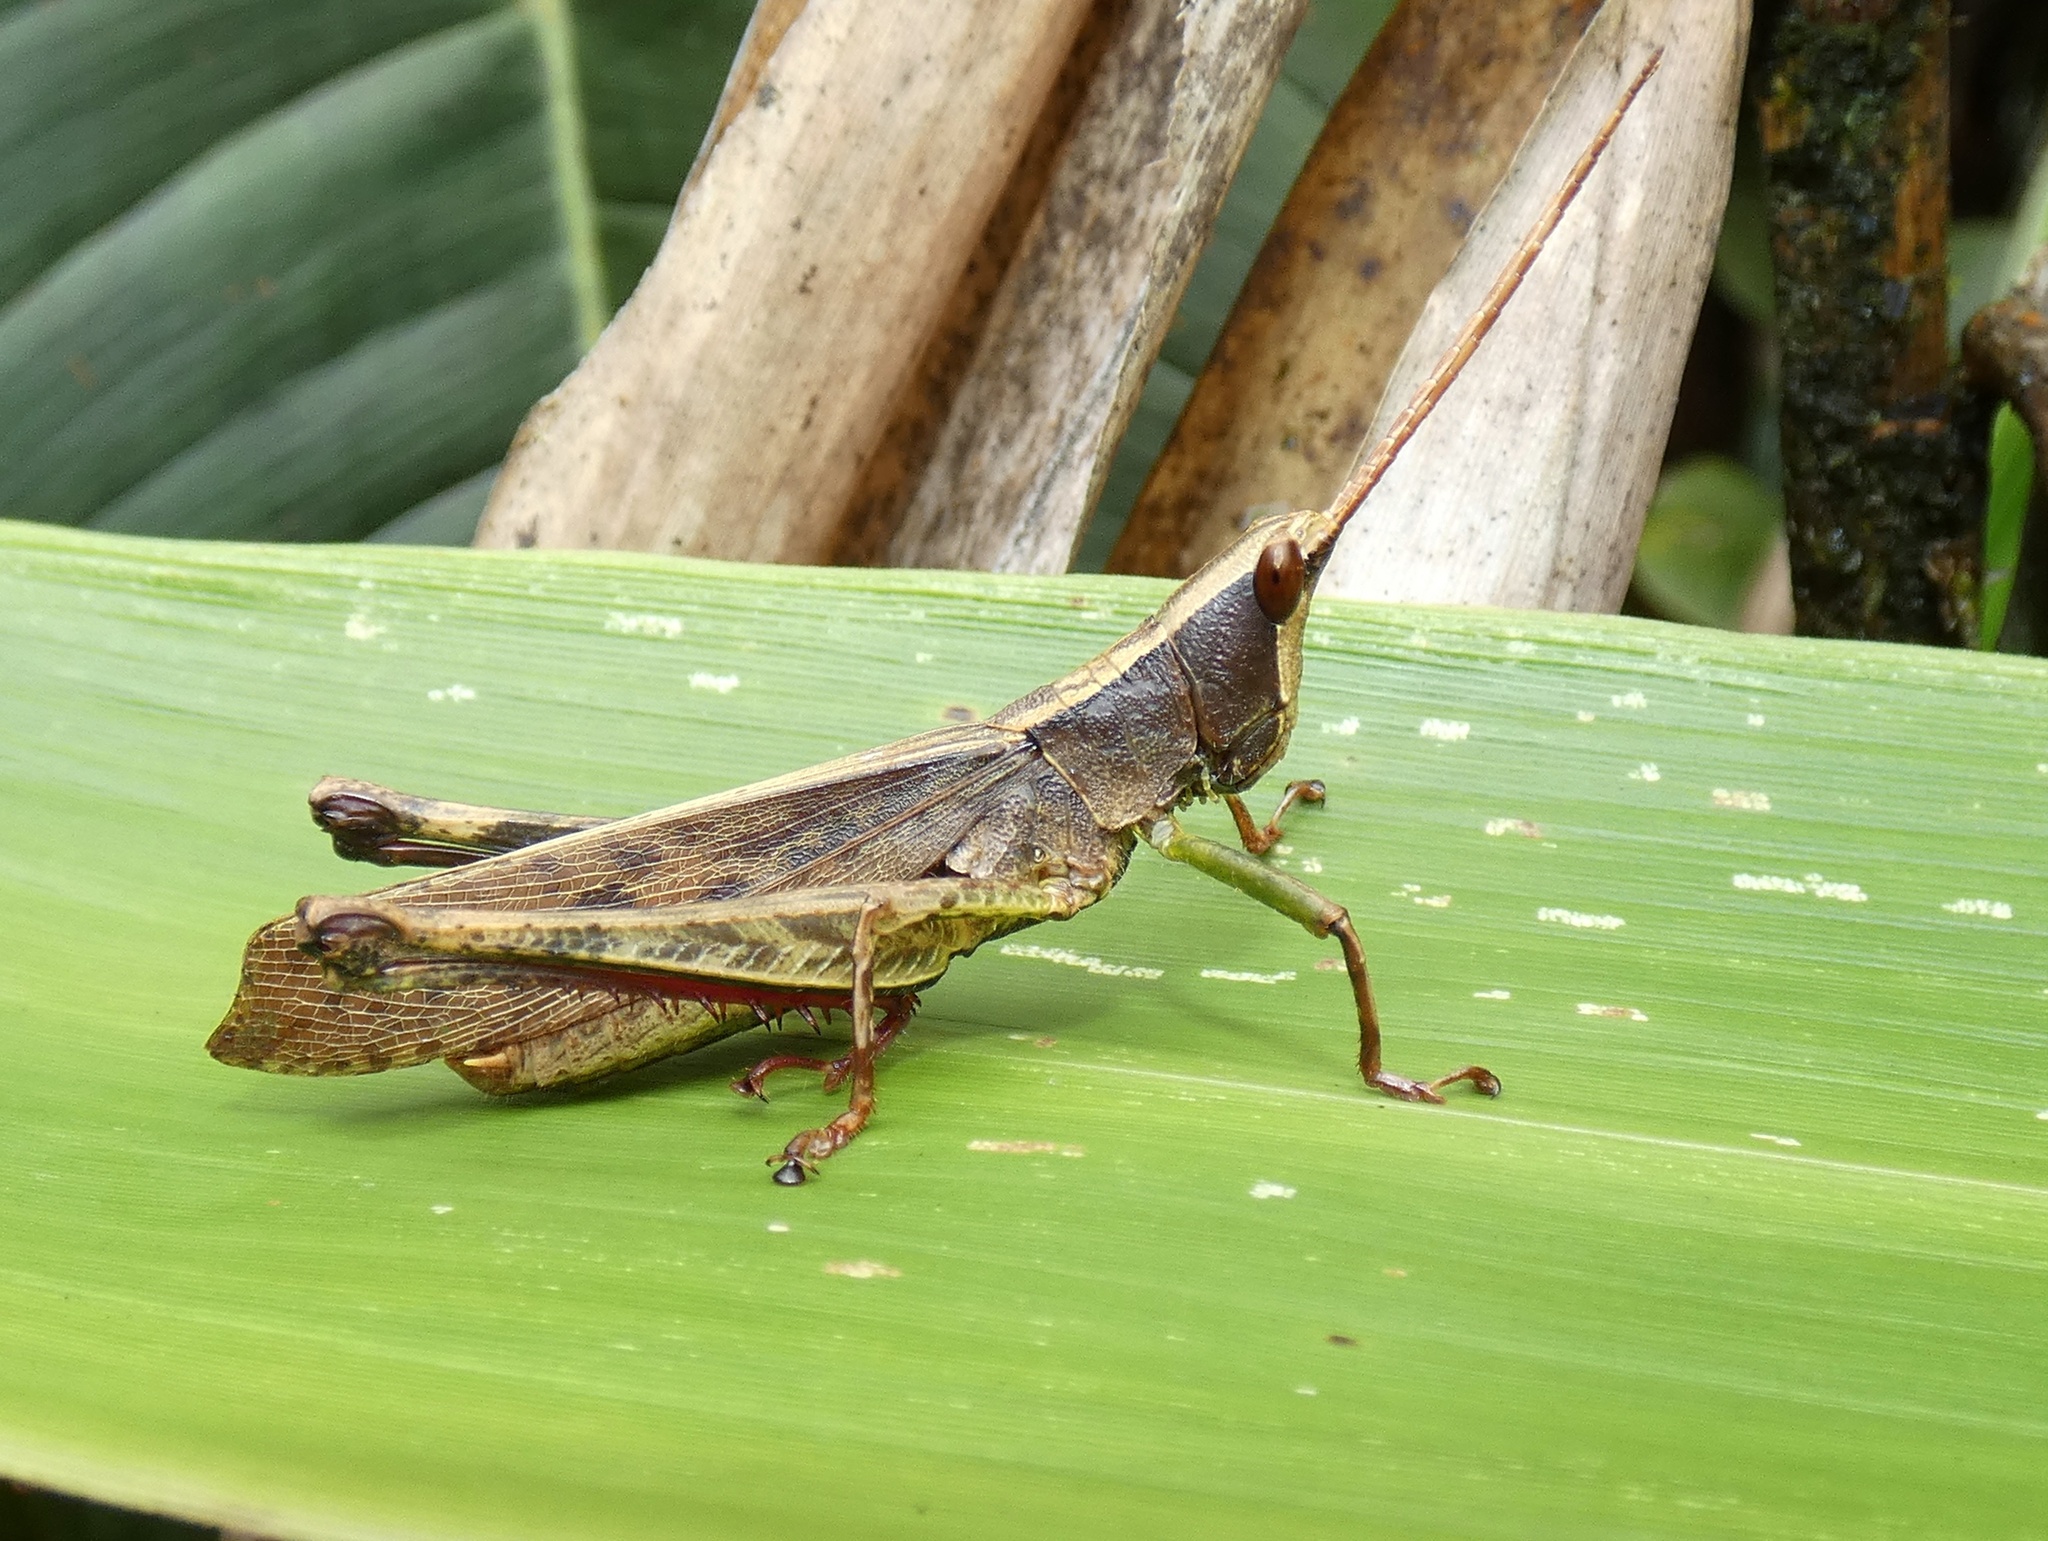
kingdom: Animalia
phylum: Arthropoda
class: Insecta
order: Orthoptera
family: Romaleidae
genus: Phaeoparia
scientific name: Phaeoparia depressicornis
